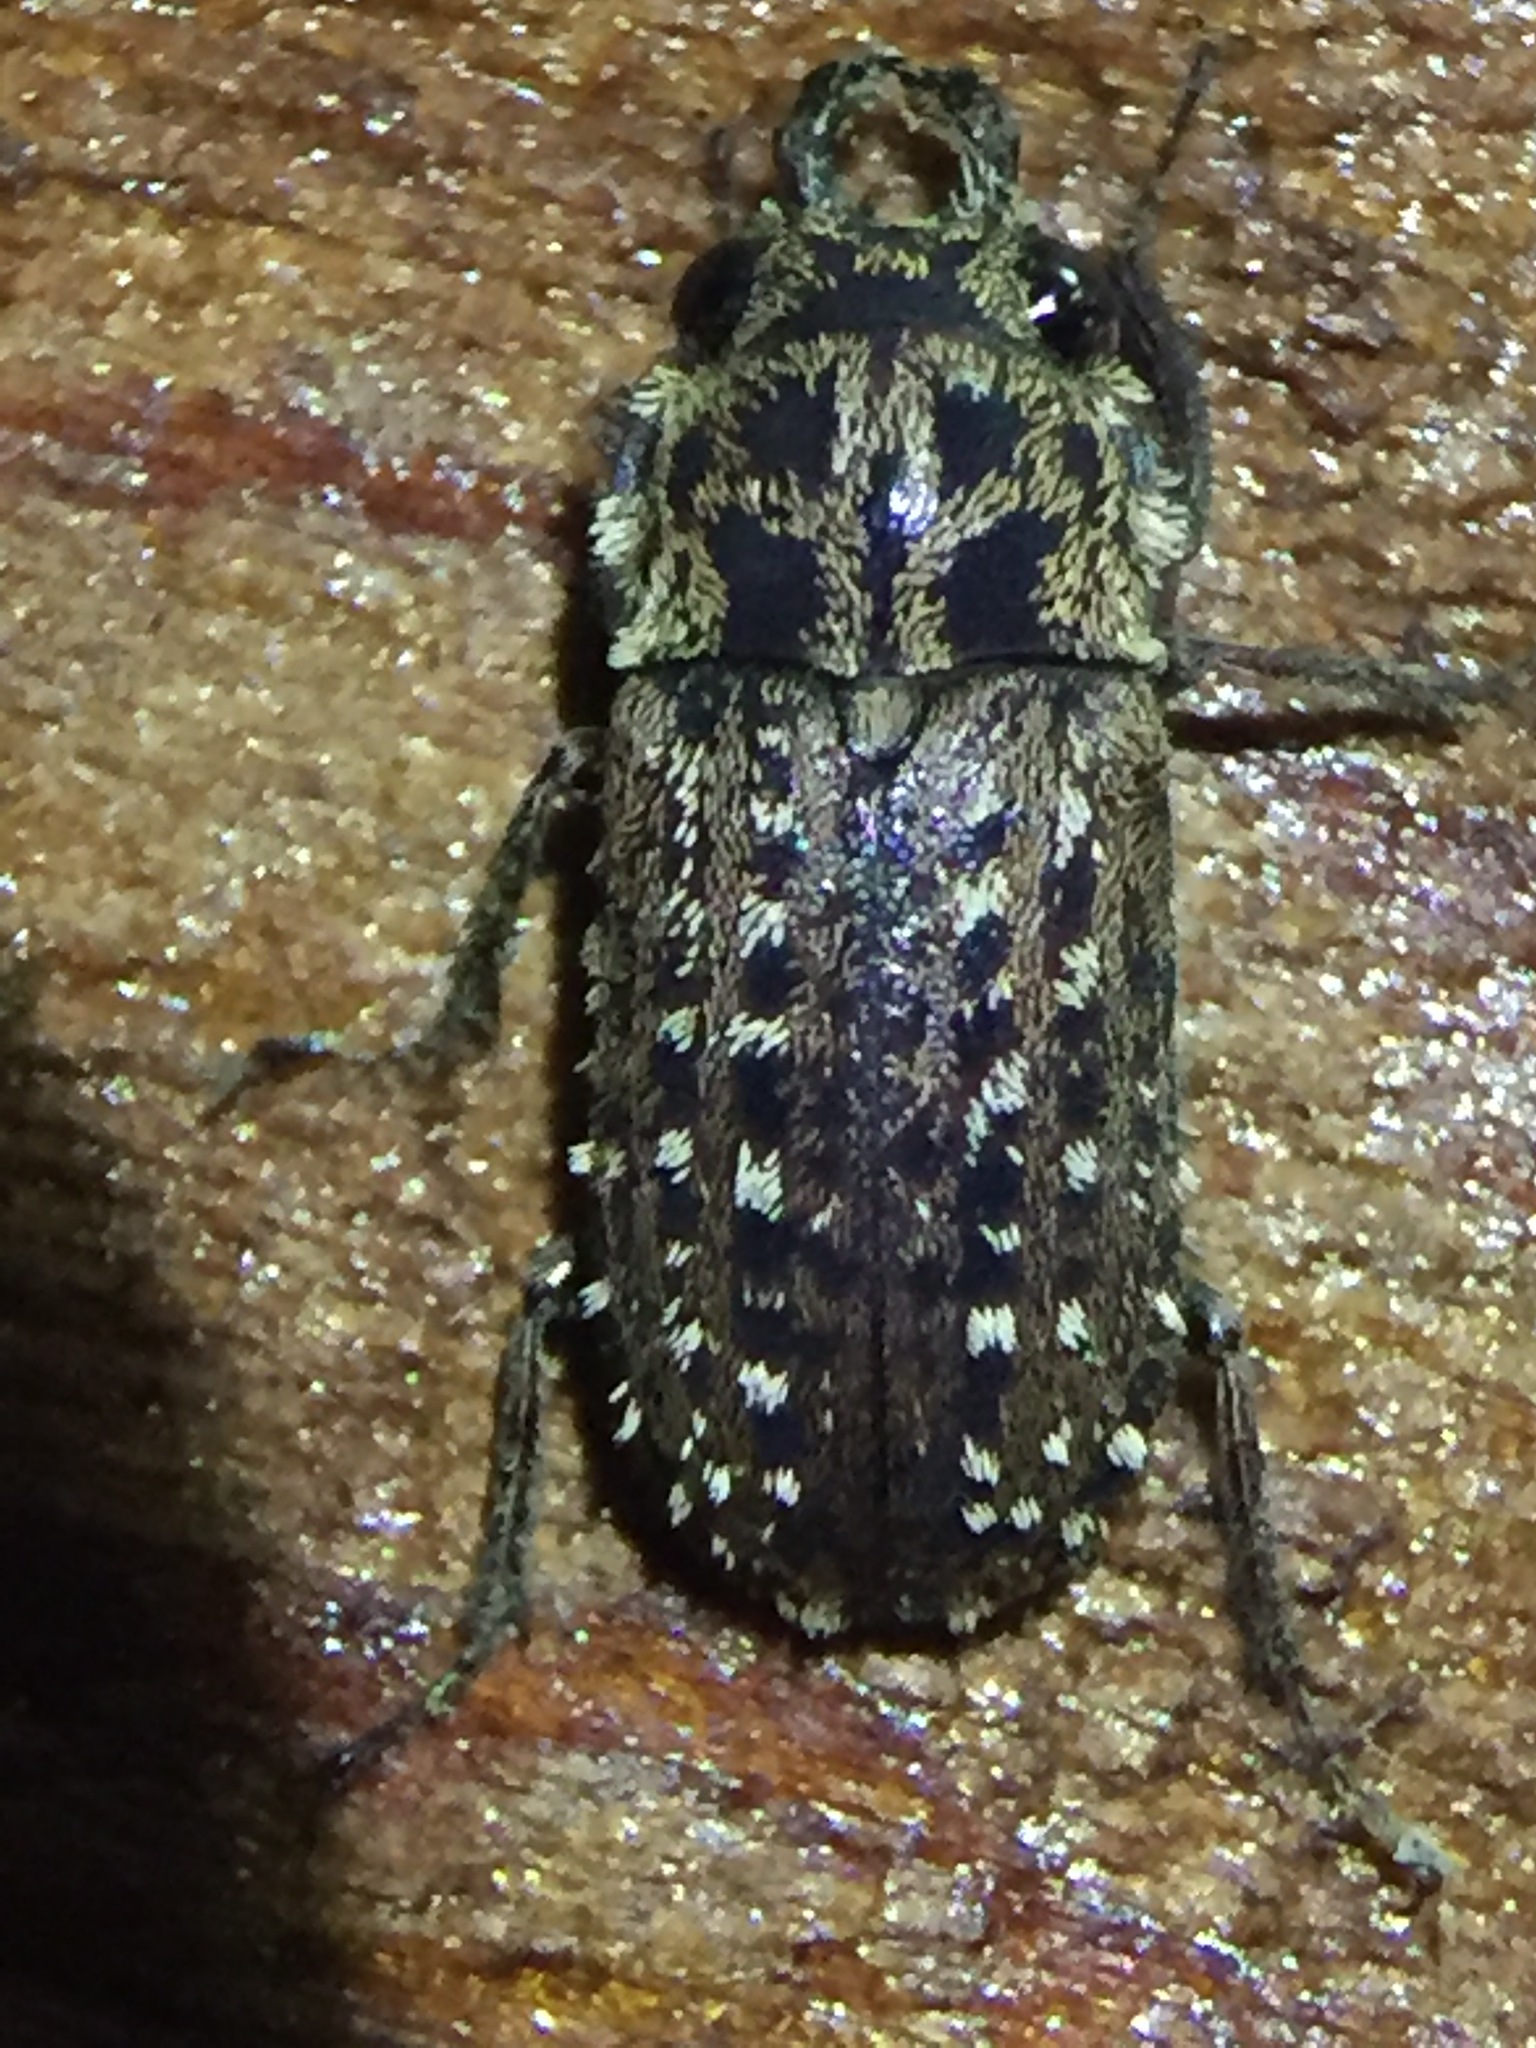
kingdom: Animalia
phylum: Arthropoda
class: Insecta
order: Coleoptera
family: Lucanidae
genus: Mitophyllus
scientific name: Mitophyllus arcuatus
